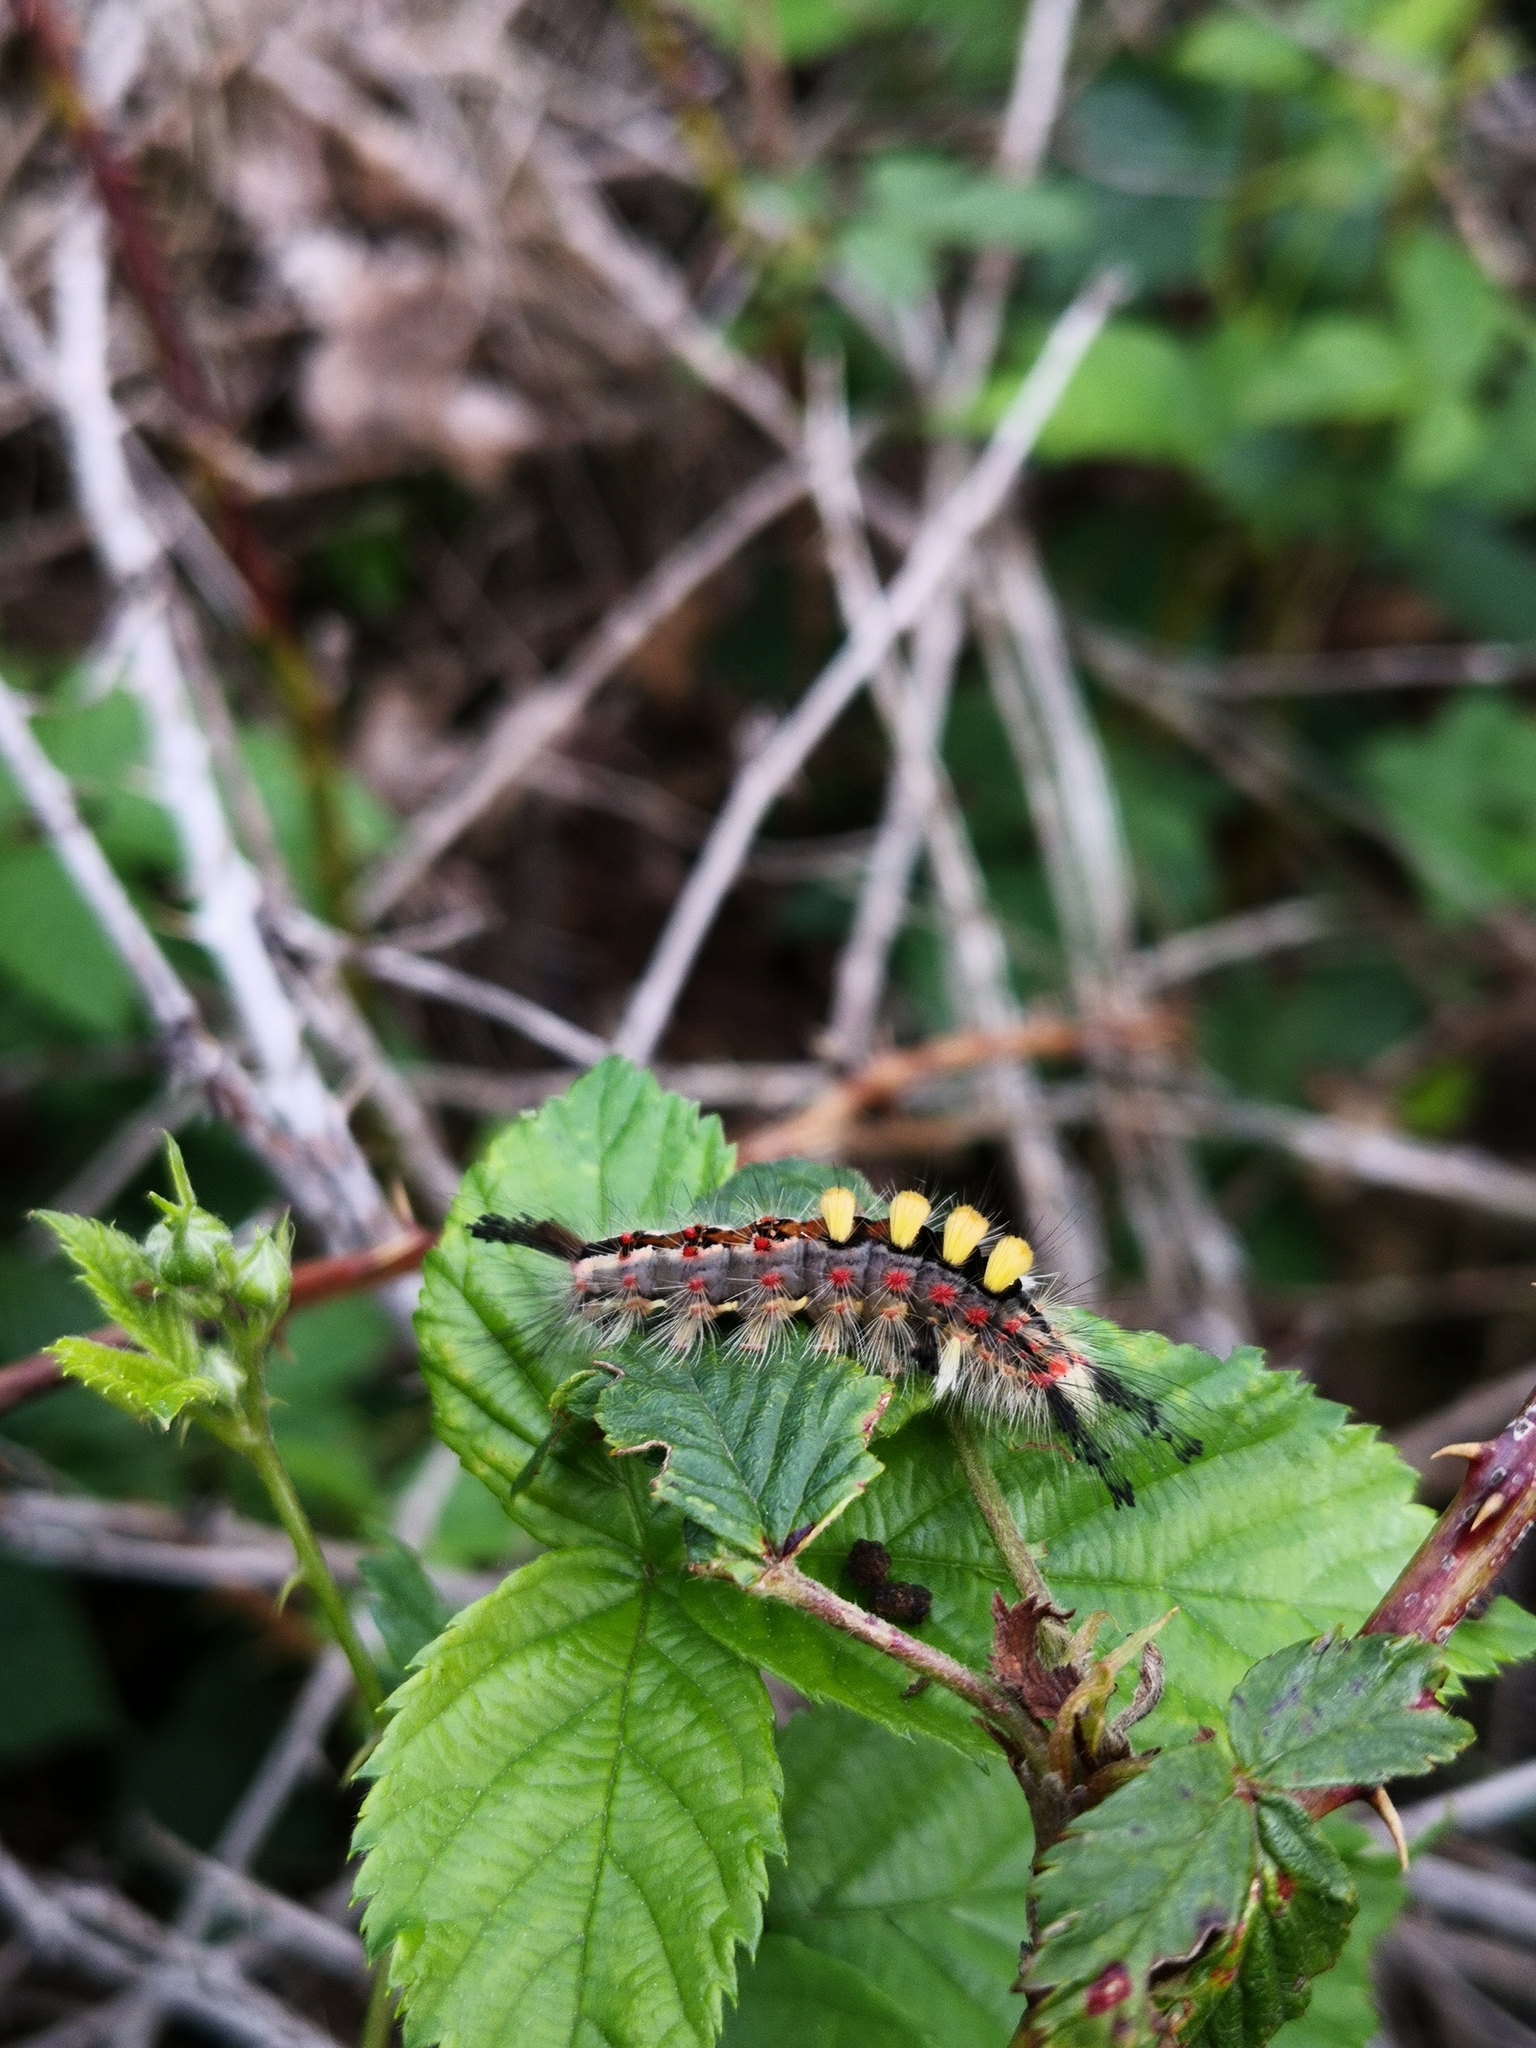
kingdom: Animalia
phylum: Arthropoda
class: Insecta
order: Lepidoptera
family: Erebidae
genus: Orgyia
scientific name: Orgyia antiqua
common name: Vapourer
